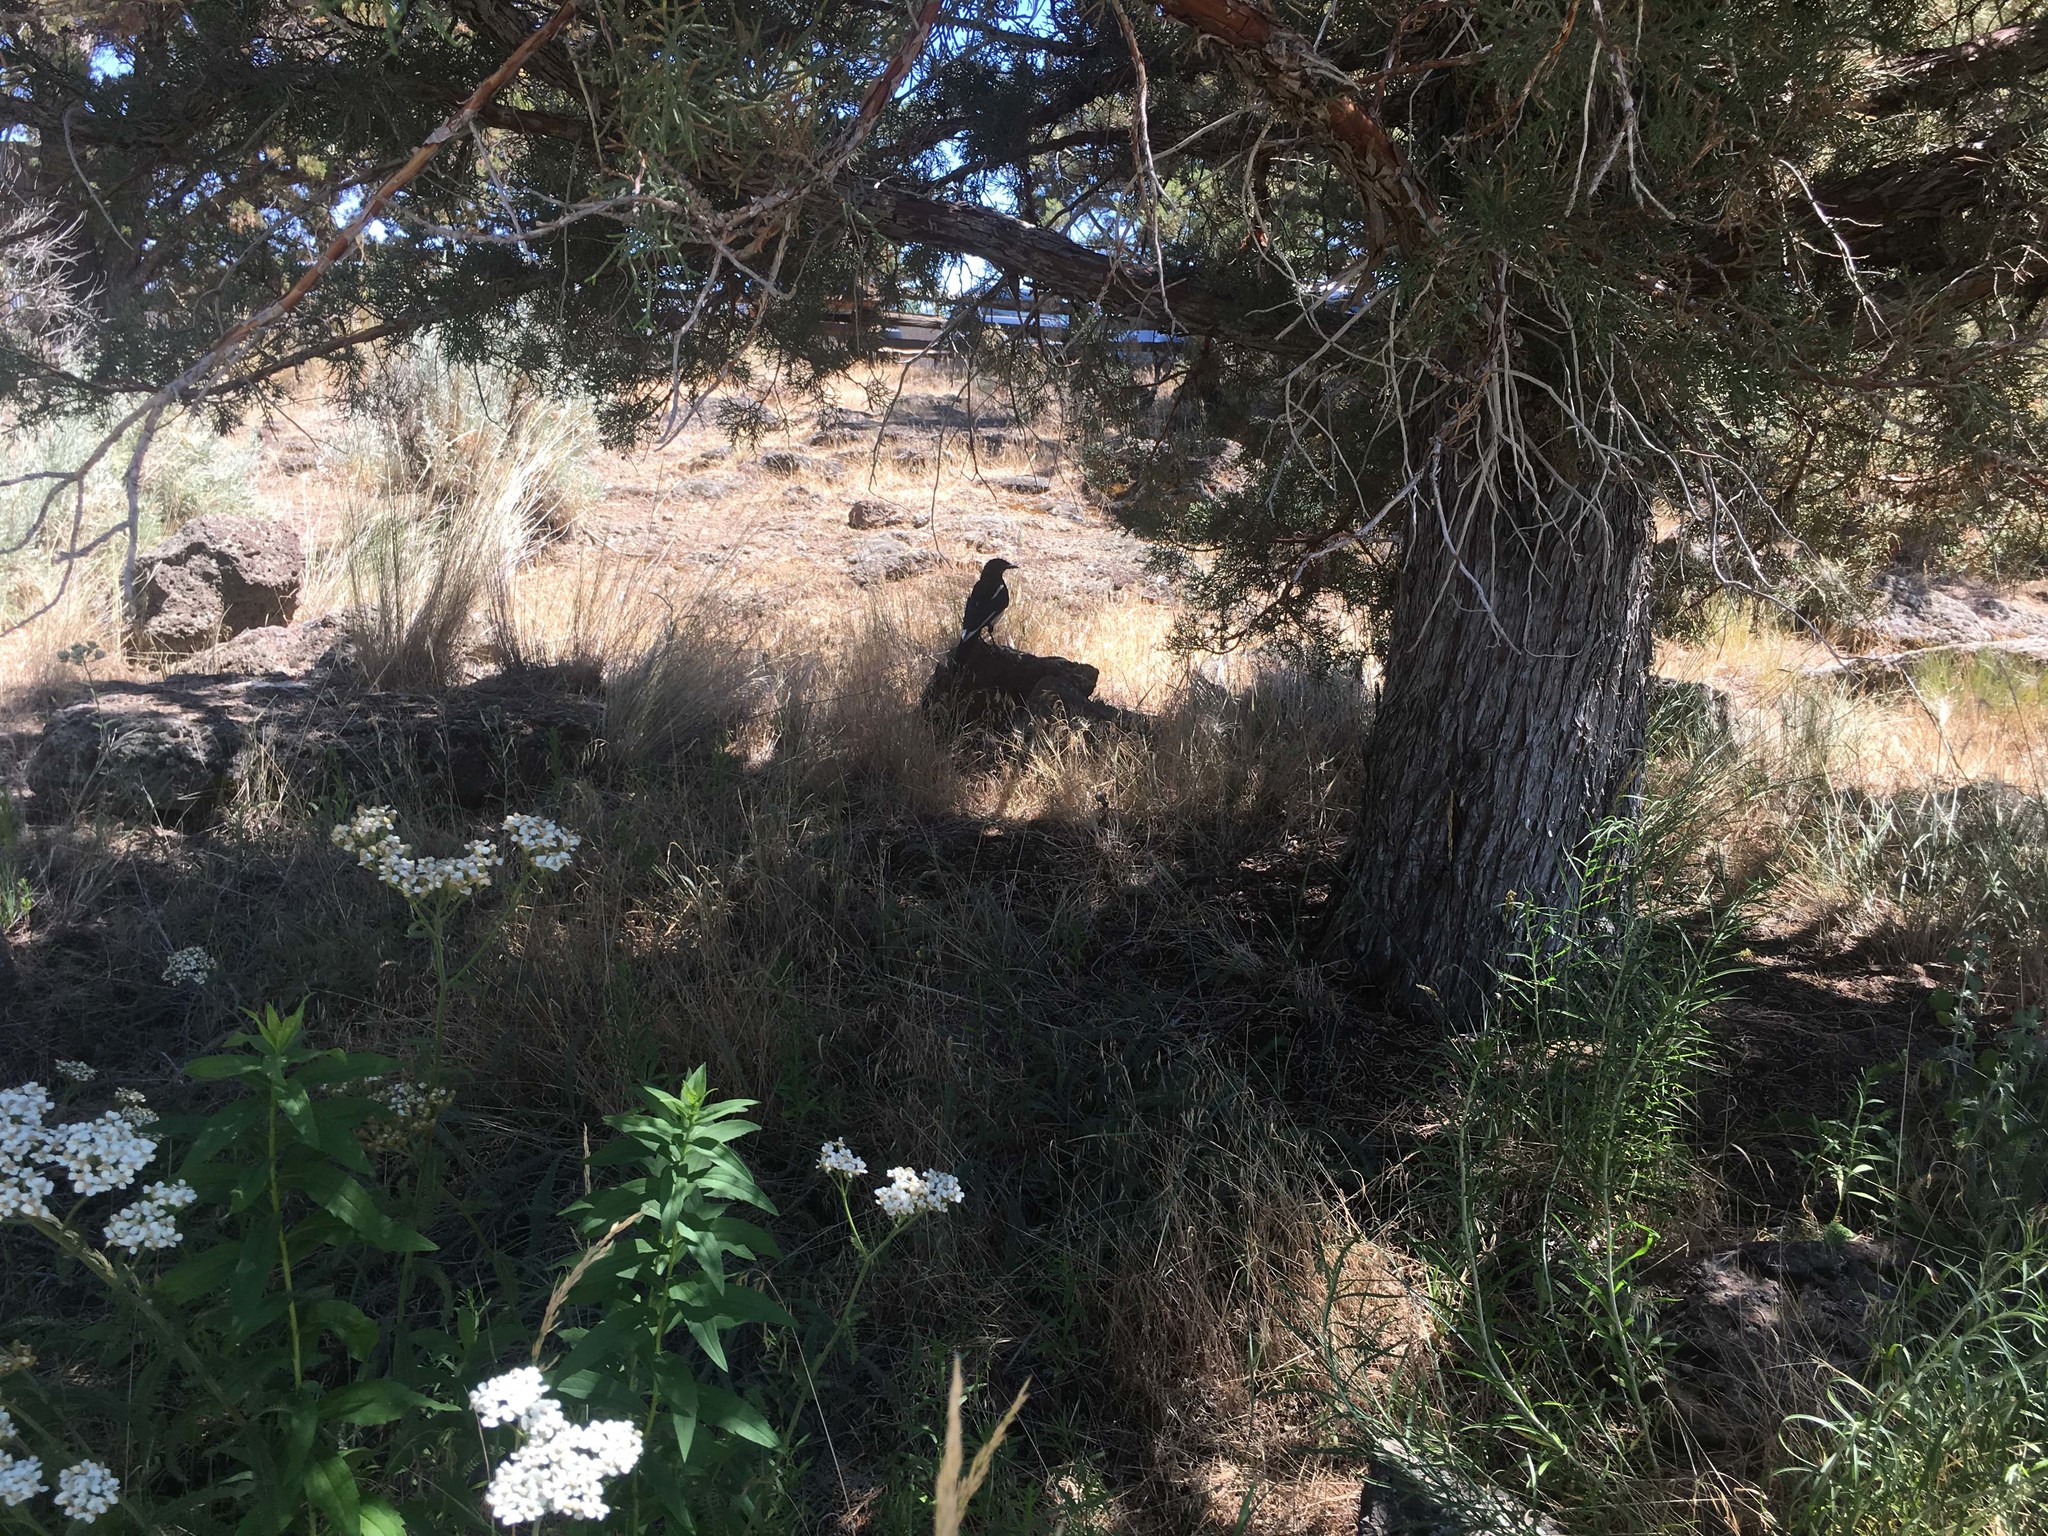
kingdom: Animalia
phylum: Chordata
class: Aves
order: Passeriformes
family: Corvidae
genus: Pica
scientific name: Pica hudsonia
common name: Black-billed magpie
